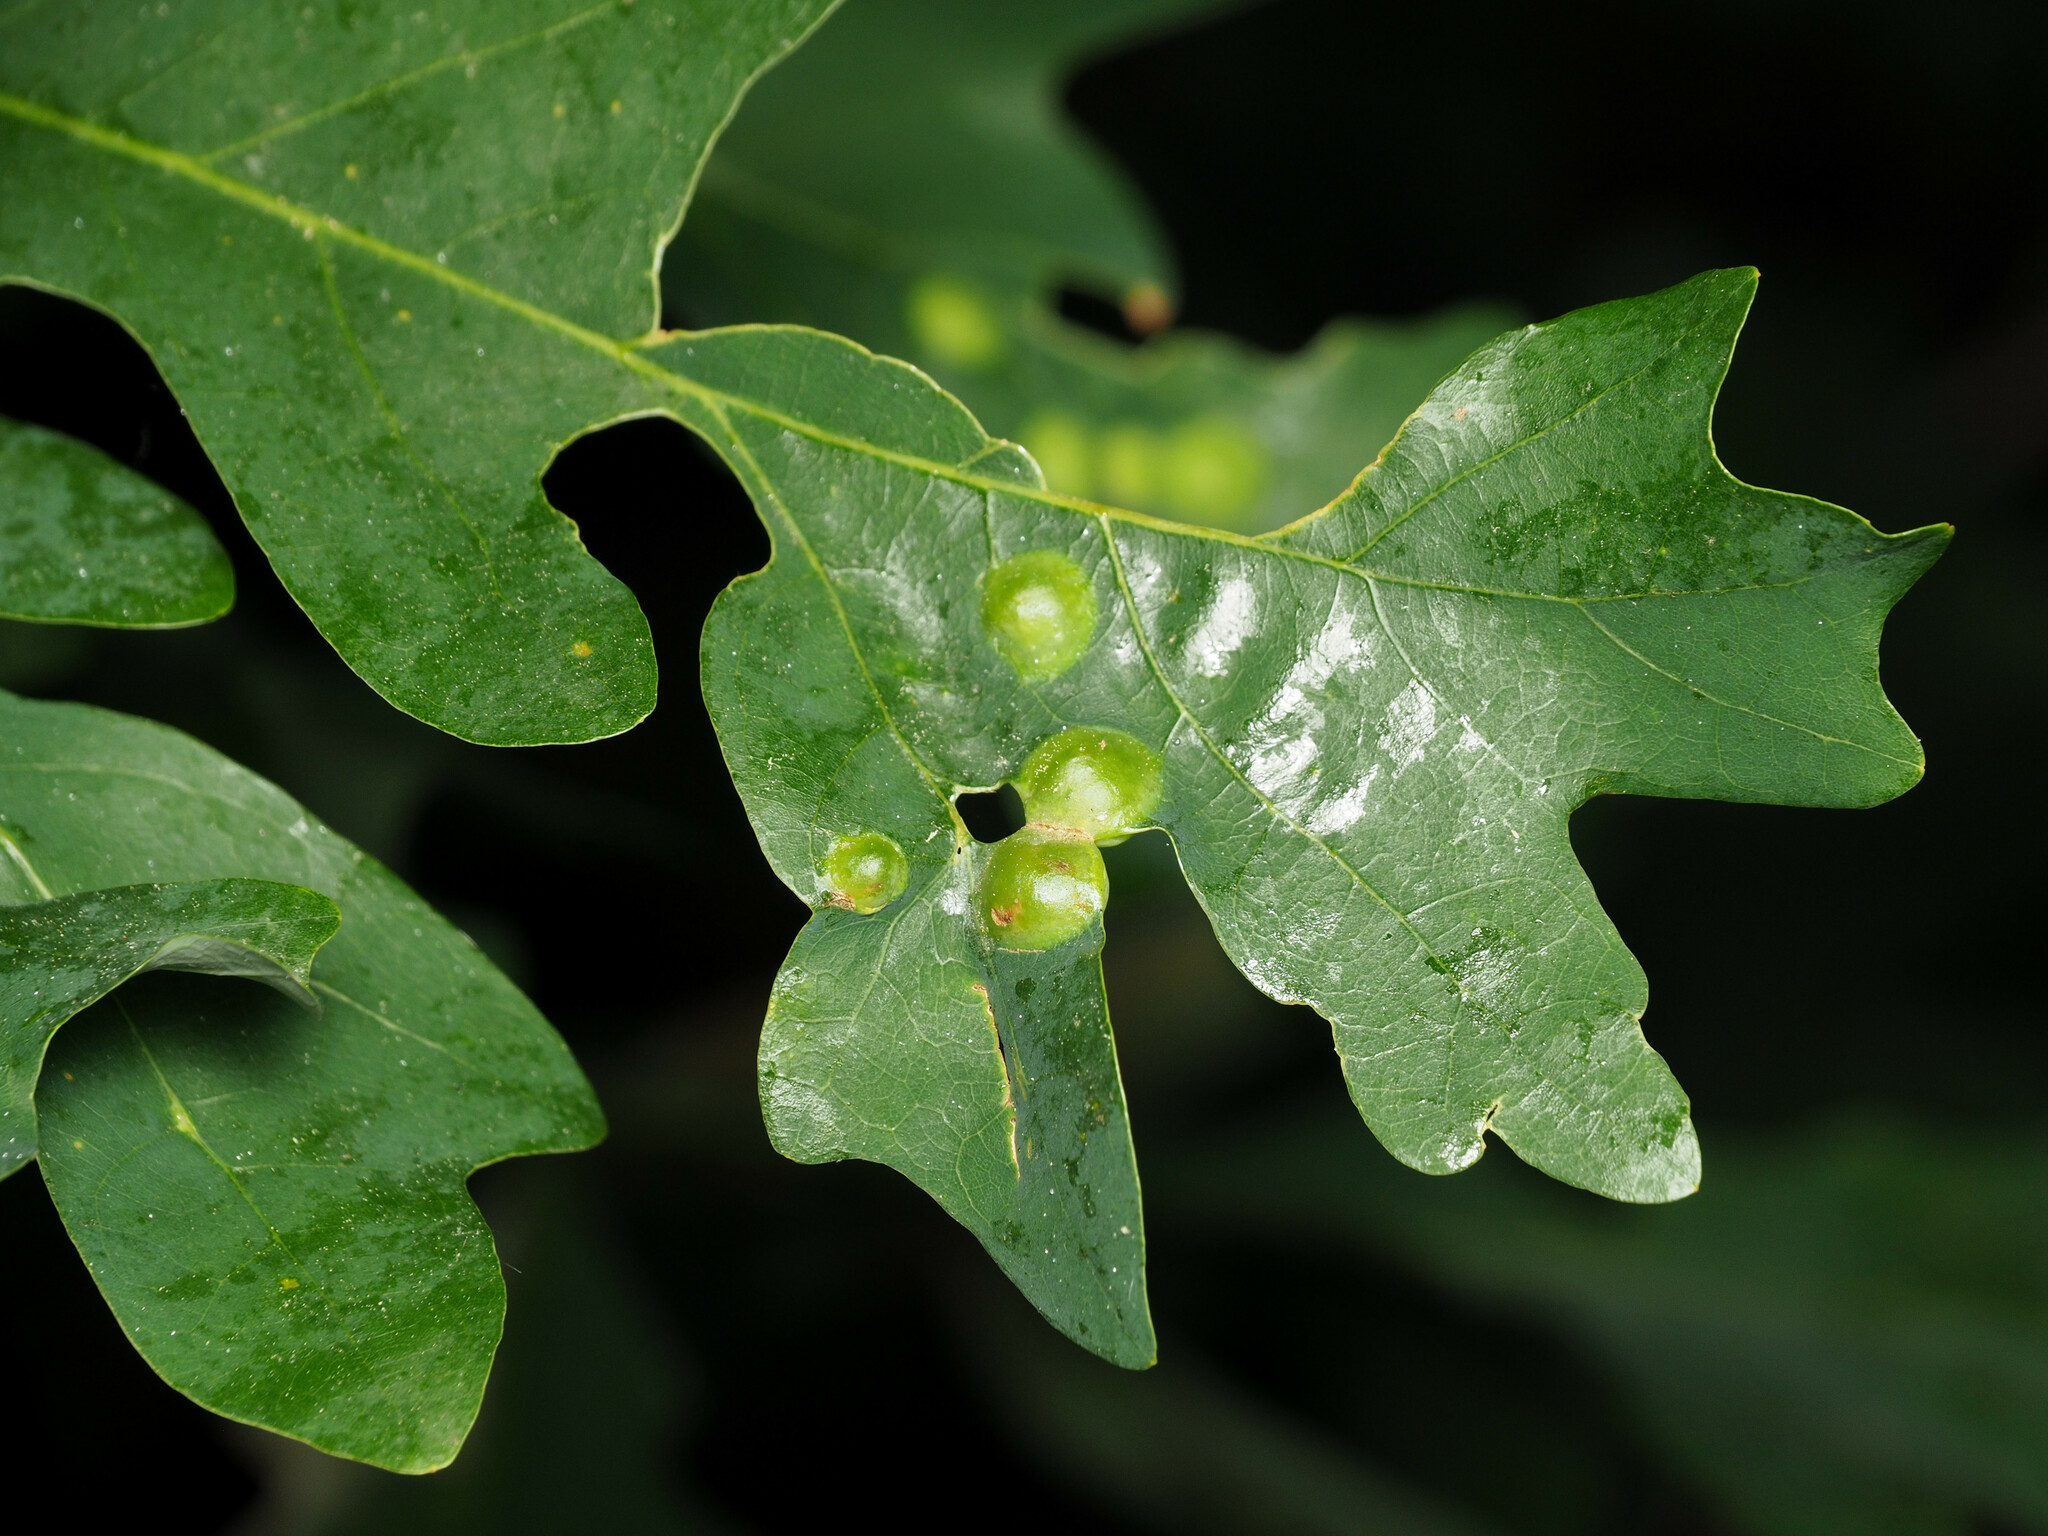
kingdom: Animalia
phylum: Arthropoda
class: Insecta
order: Hymenoptera
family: Cynipidae
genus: Callirhytis
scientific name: Callirhytis
